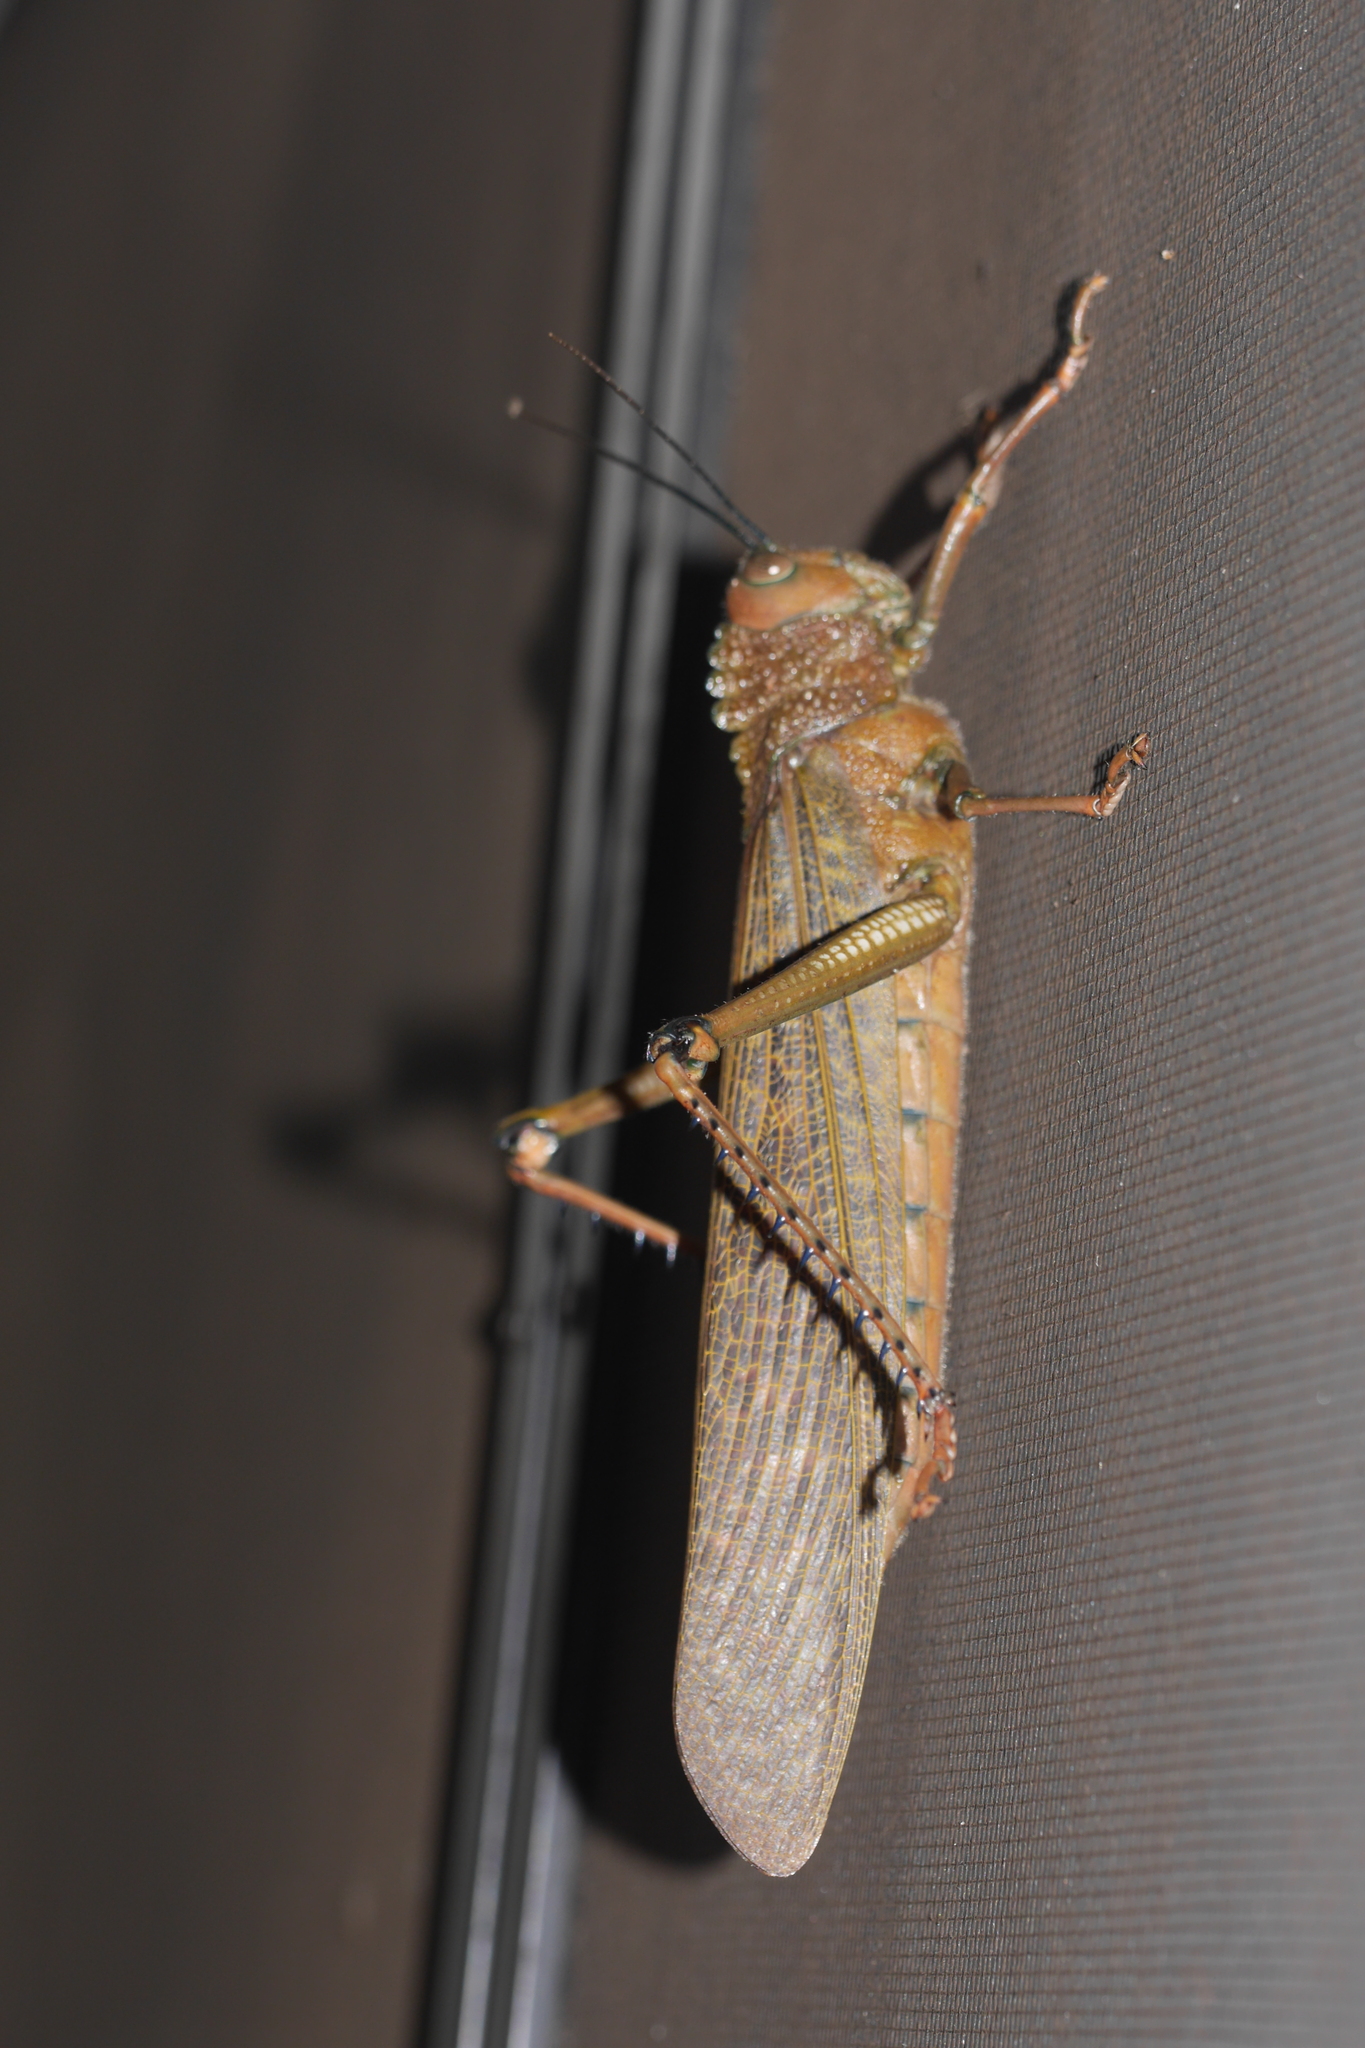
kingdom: Animalia
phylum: Arthropoda
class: Insecta
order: Orthoptera
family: Romaleidae
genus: Tropidacris
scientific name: Tropidacris cristata
